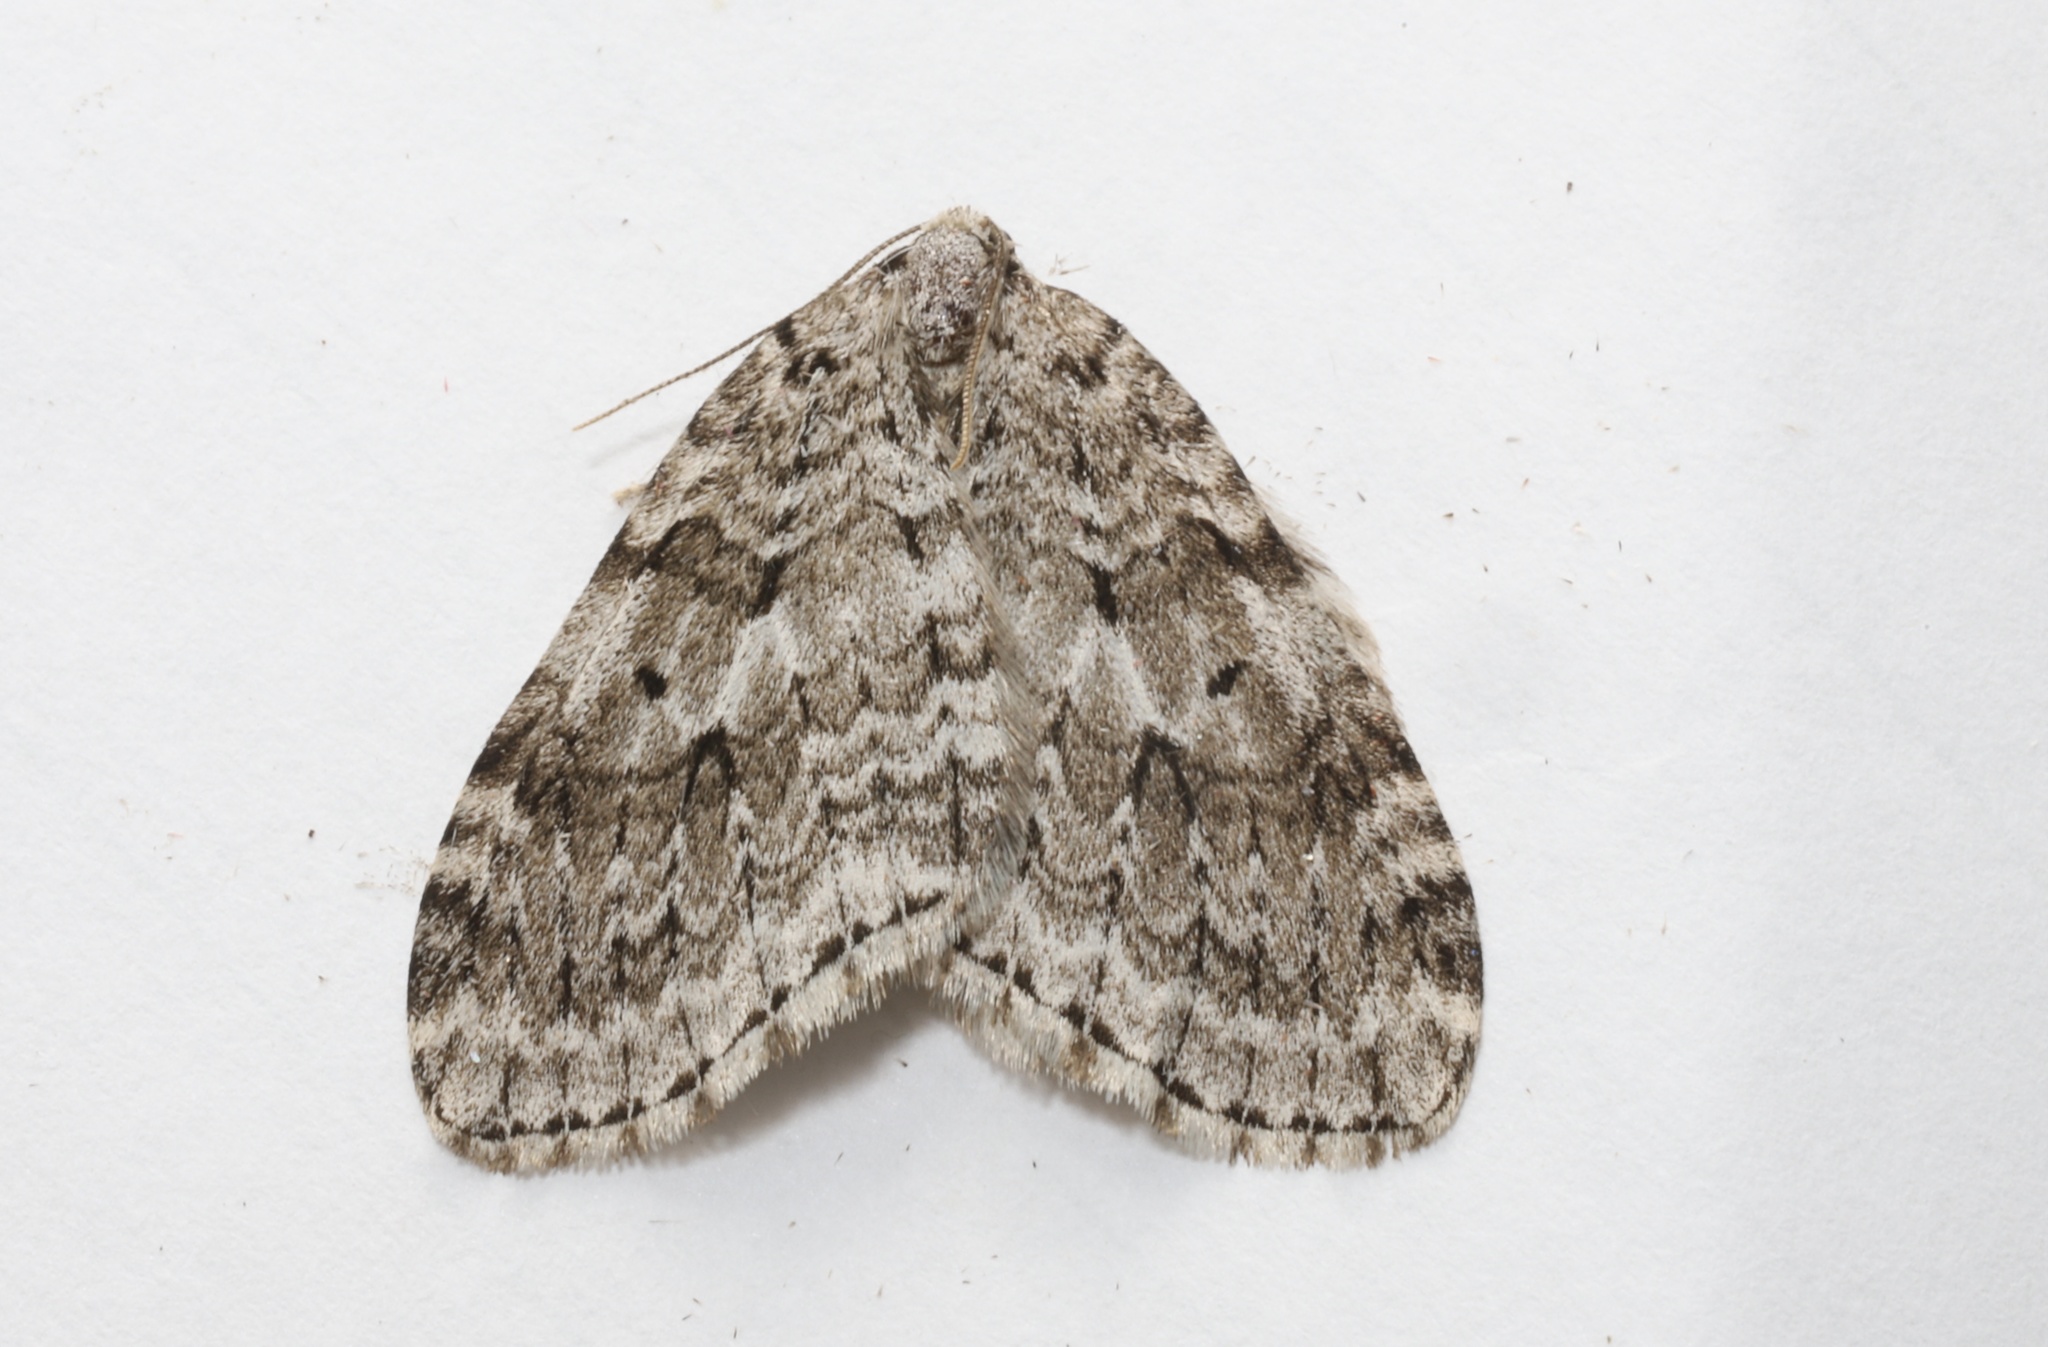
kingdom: Animalia
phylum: Arthropoda
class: Insecta
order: Lepidoptera
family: Geometridae
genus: Epirrita
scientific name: Epirrita autumnata
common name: Autumnal moth
